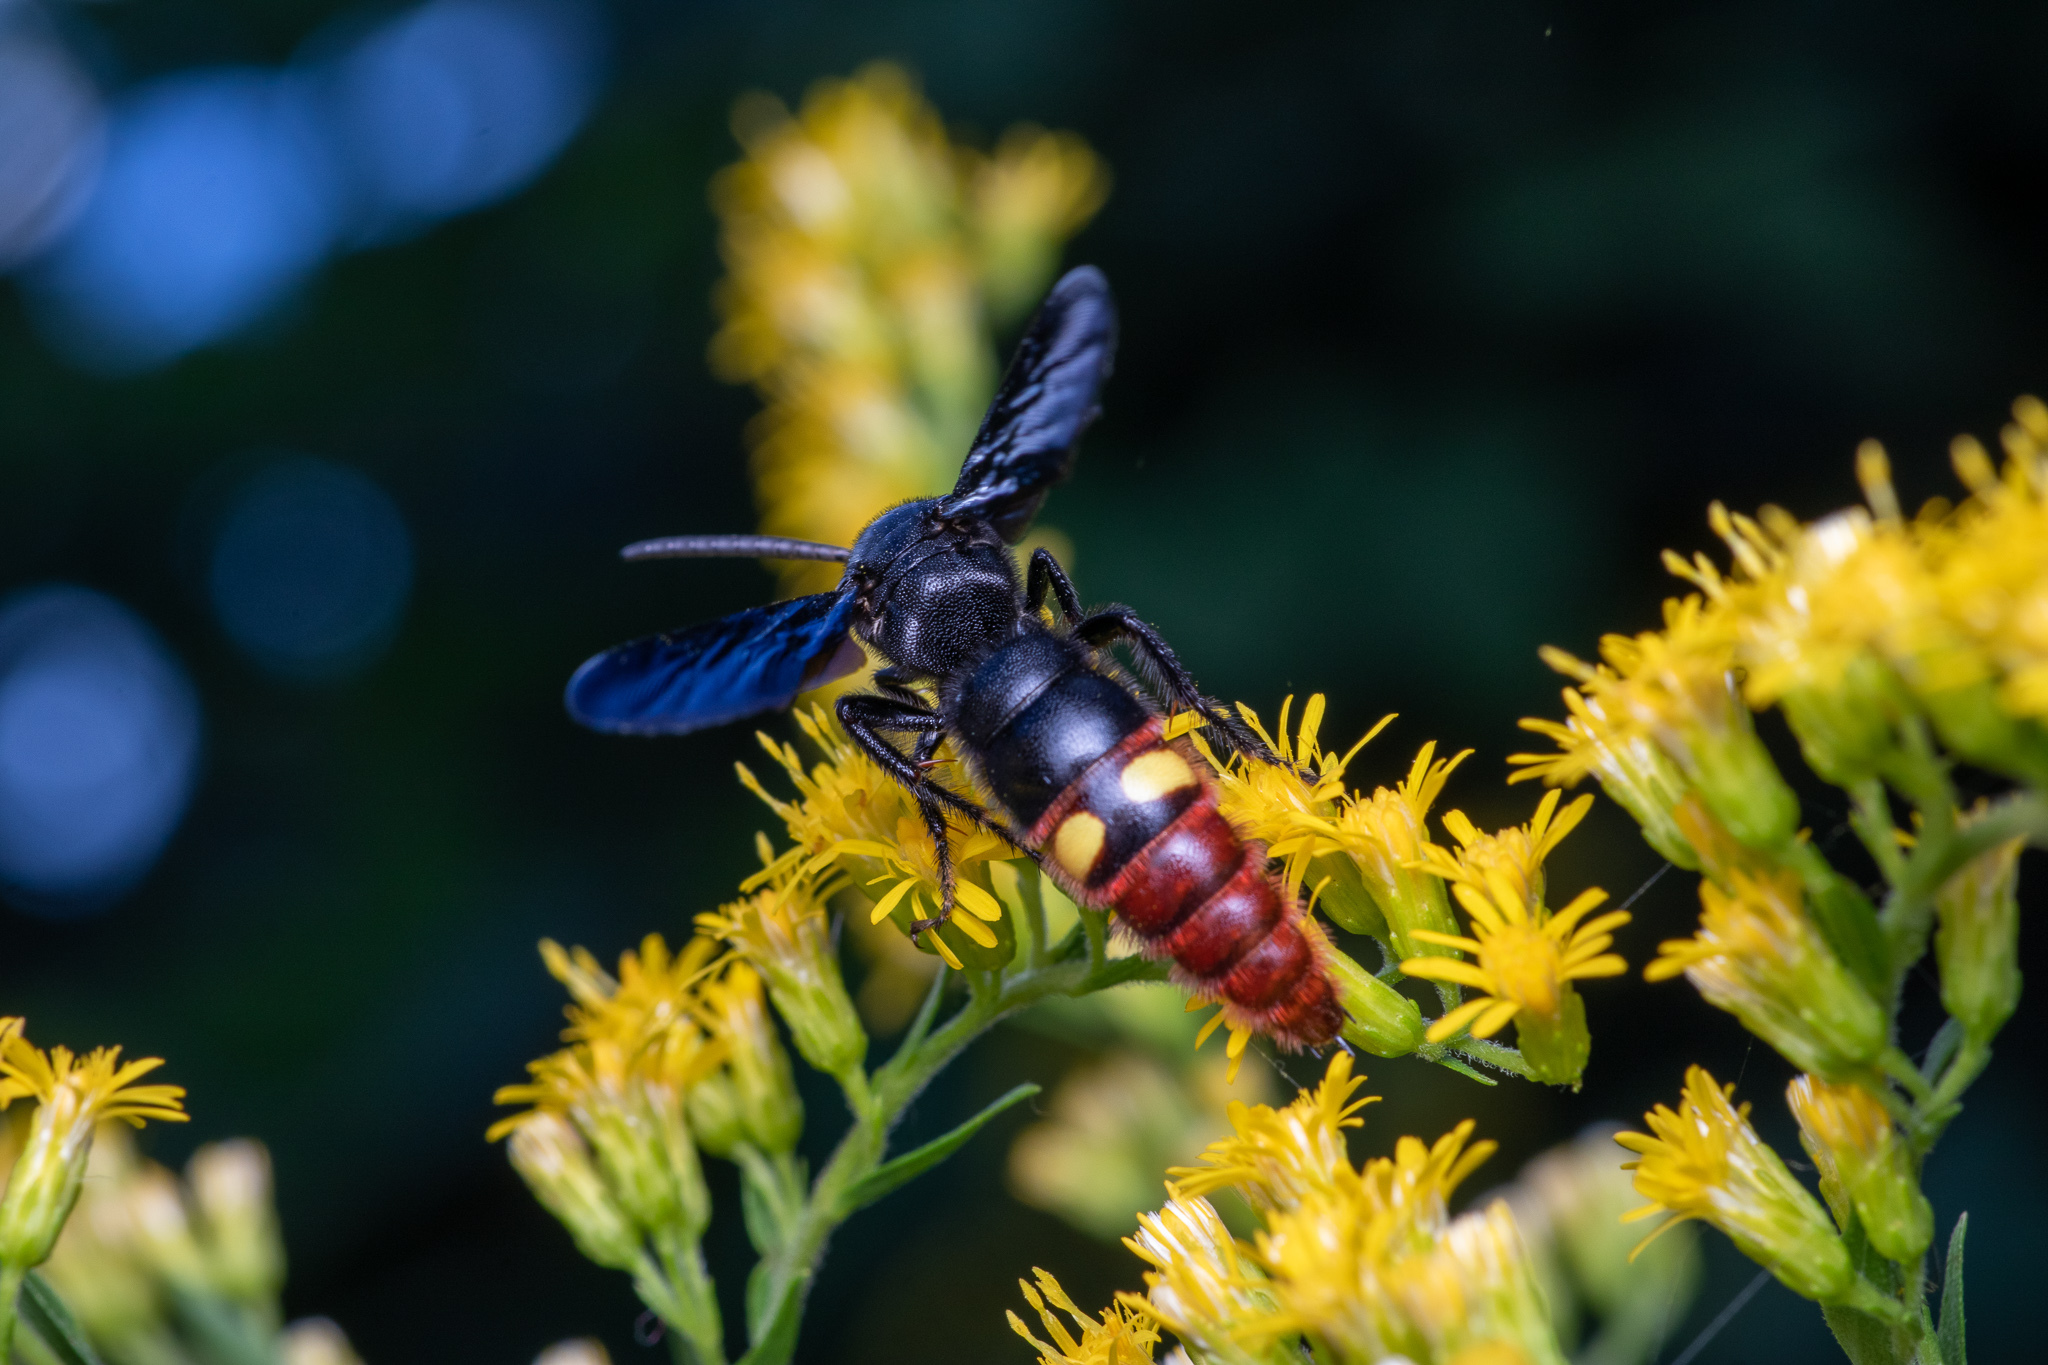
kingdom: Animalia
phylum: Arthropoda
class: Insecta
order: Hymenoptera
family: Scoliidae
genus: Scolia
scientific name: Scolia dubia
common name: Blue-winged scoliid wasp
